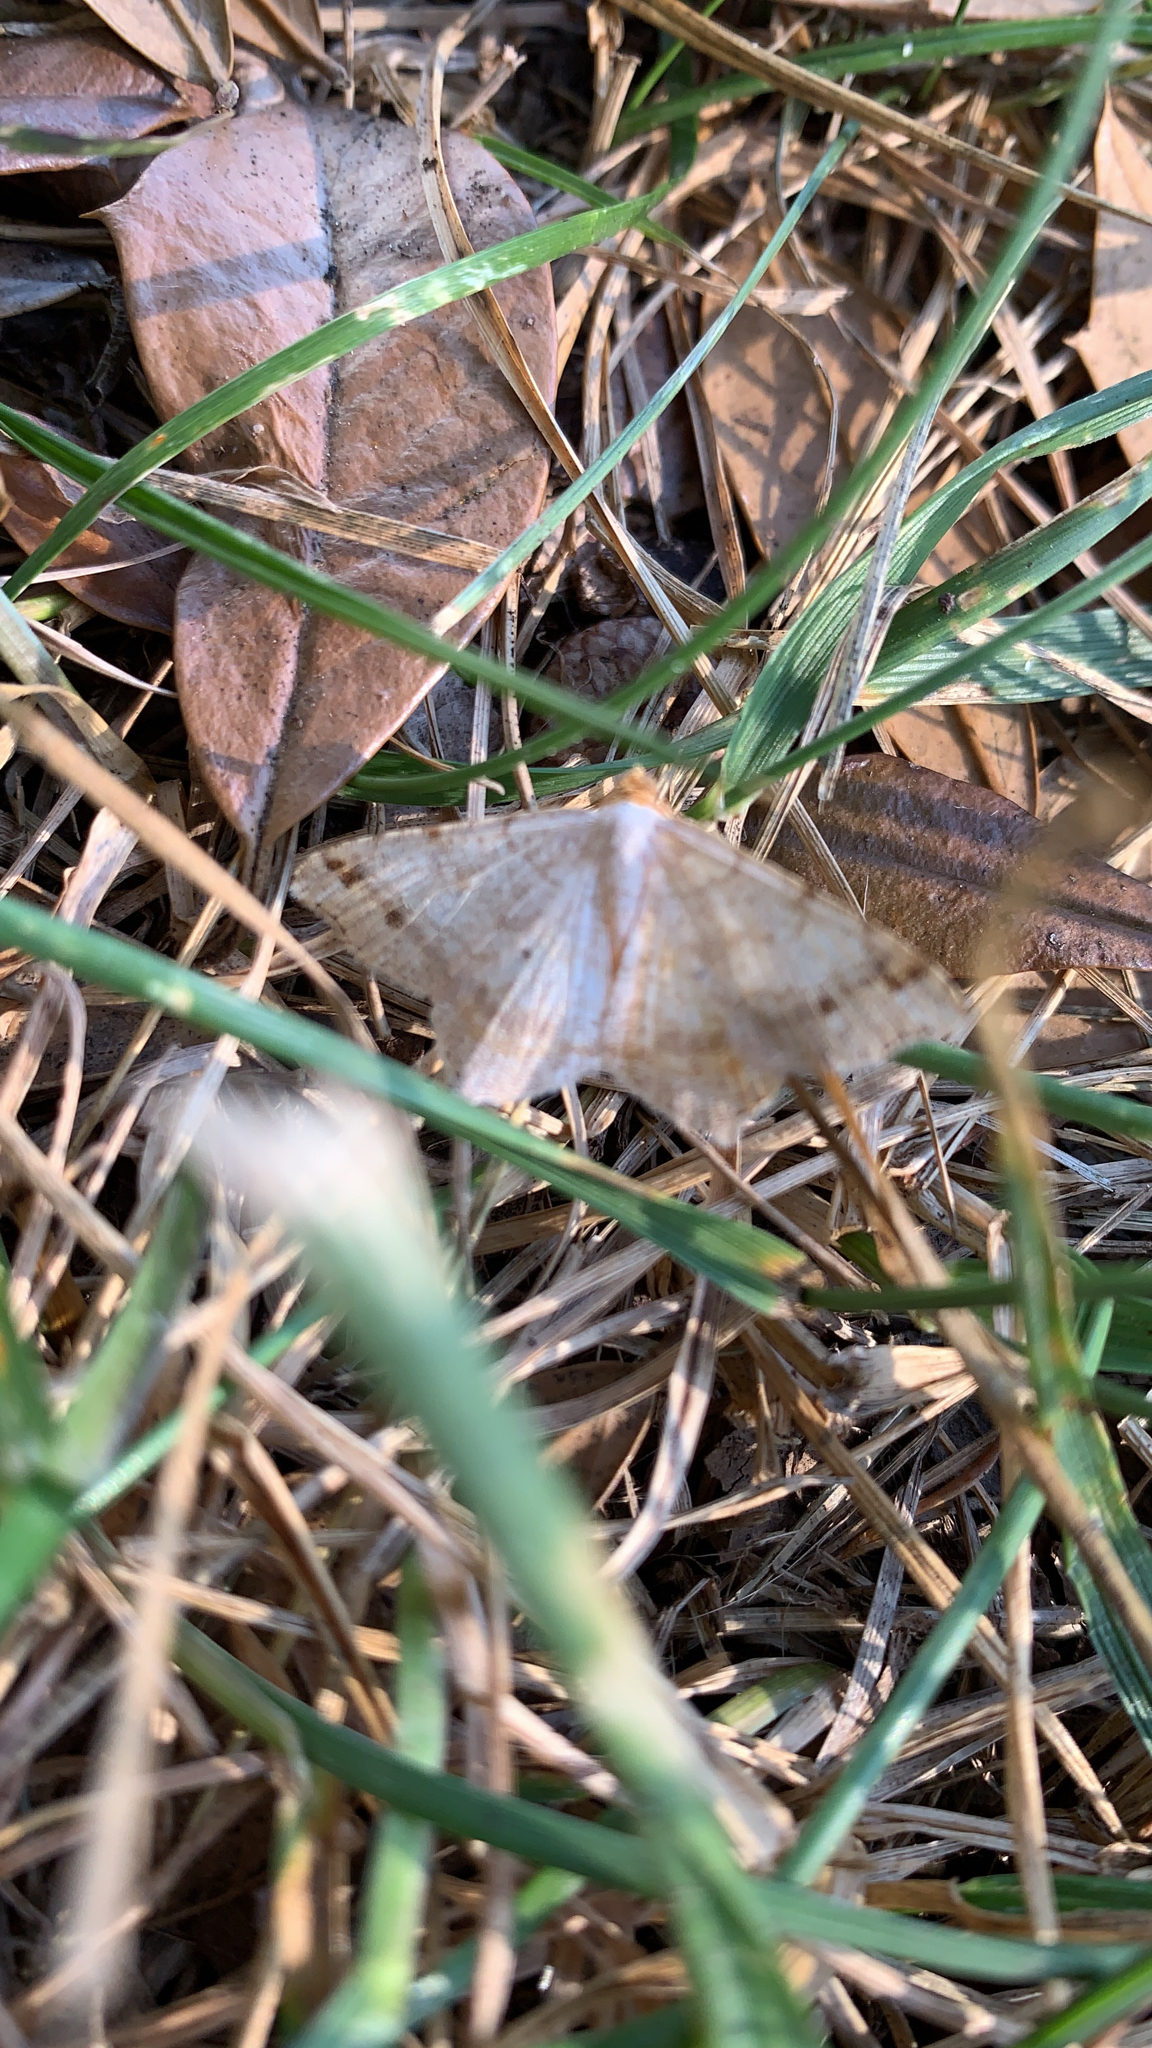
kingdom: Animalia
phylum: Arthropoda
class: Insecta
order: Lepidoptera
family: Geometridae
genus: Macaria
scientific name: Macaria bisignata
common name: Red-headed inchworm
